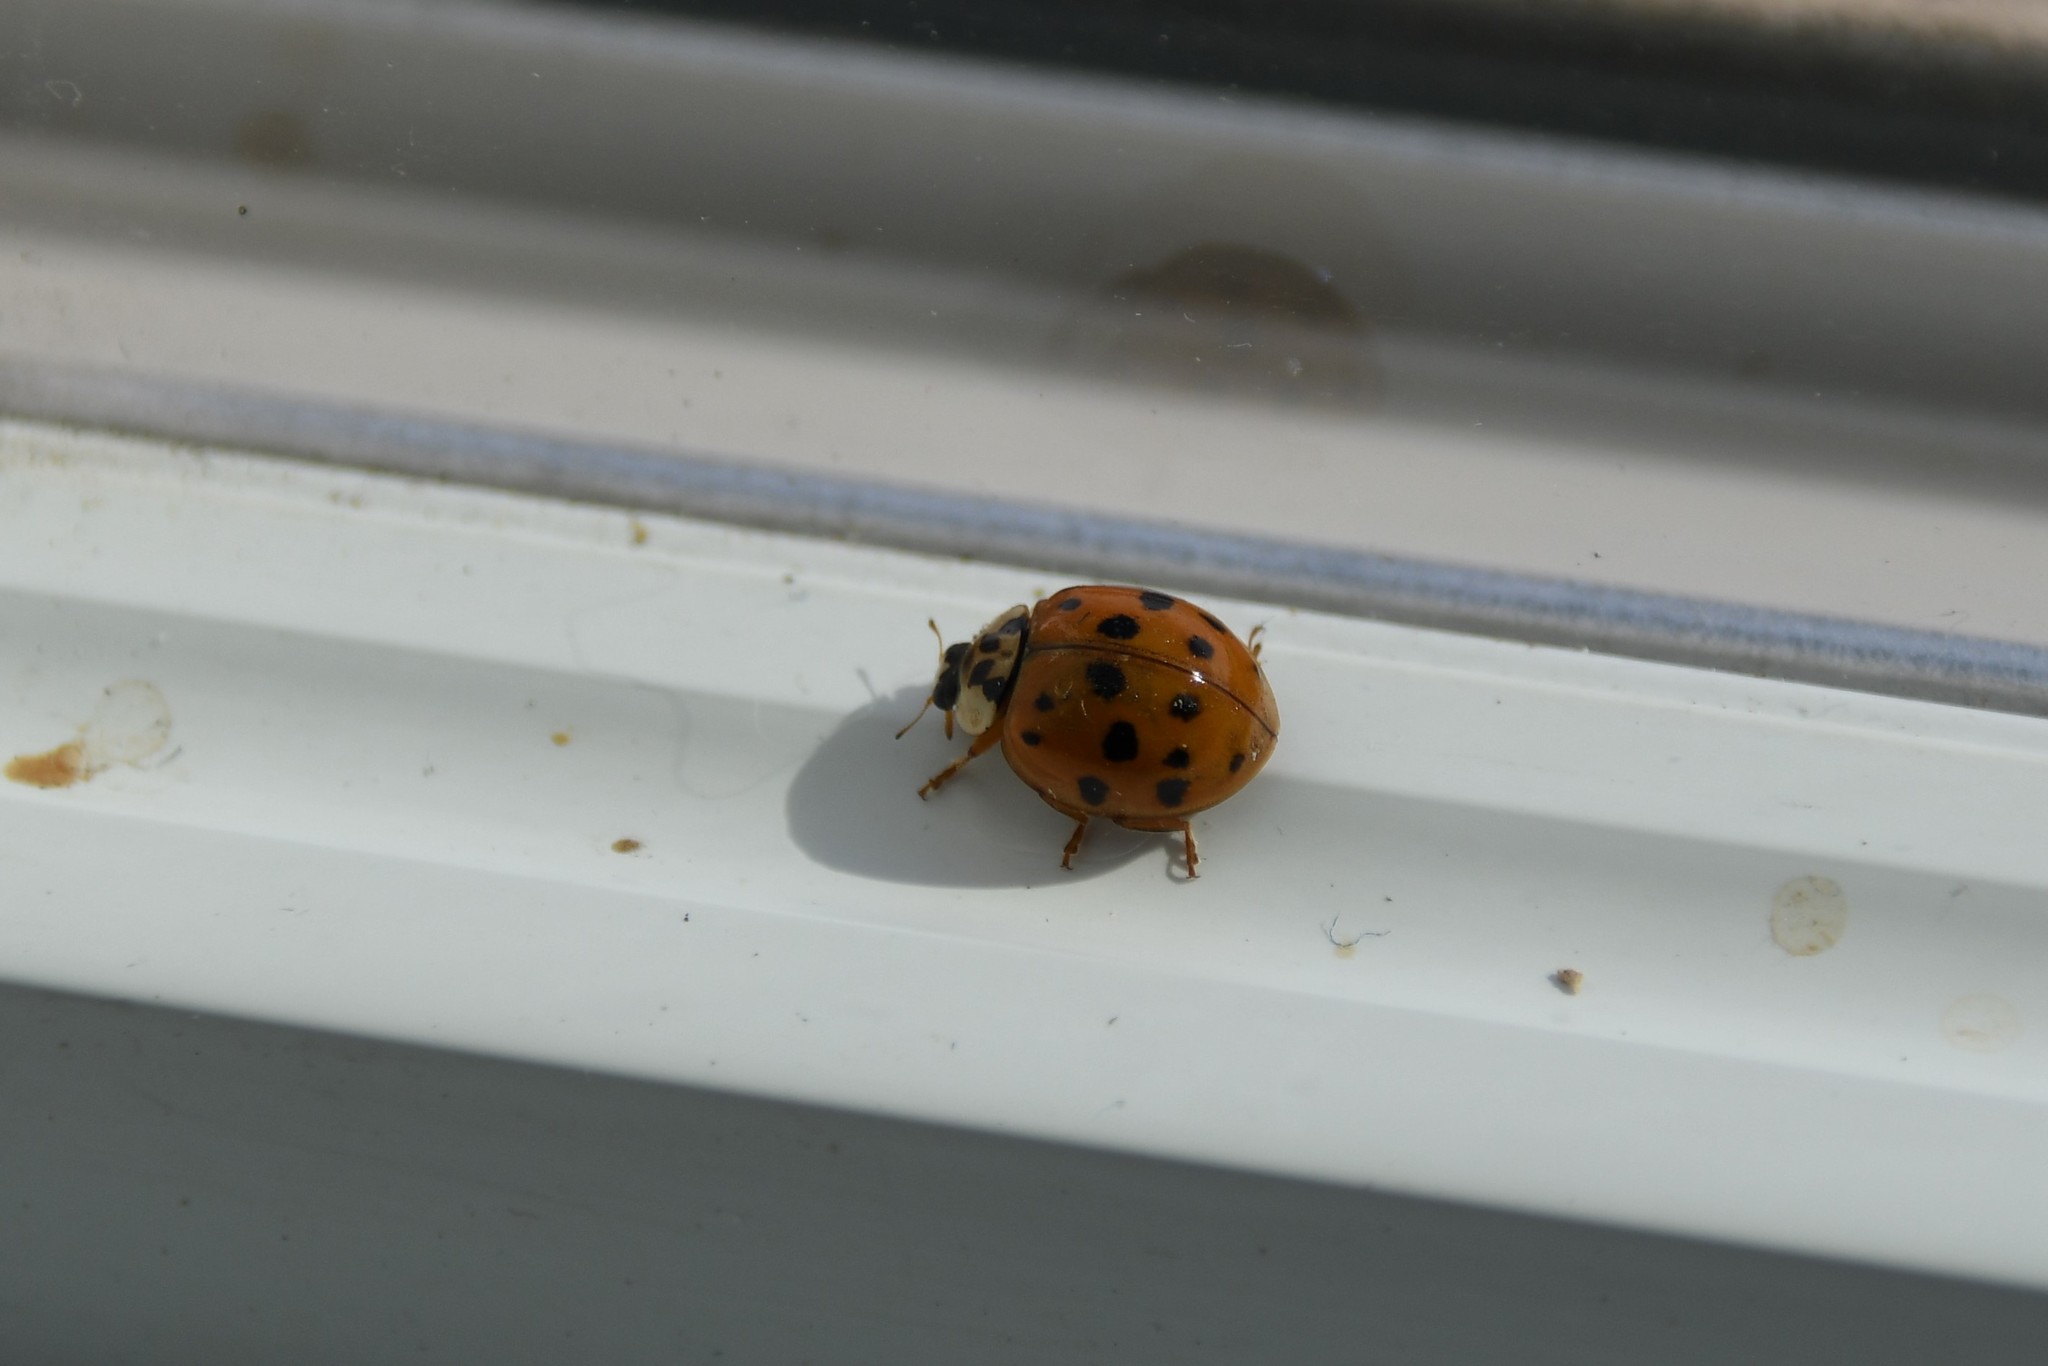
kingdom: Animalia
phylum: Arthropoda
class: Insecta
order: Coleoptera
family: Coccinellidae
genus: Harmonia
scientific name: Harmonia axyridis
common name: Harlequin ladybird
